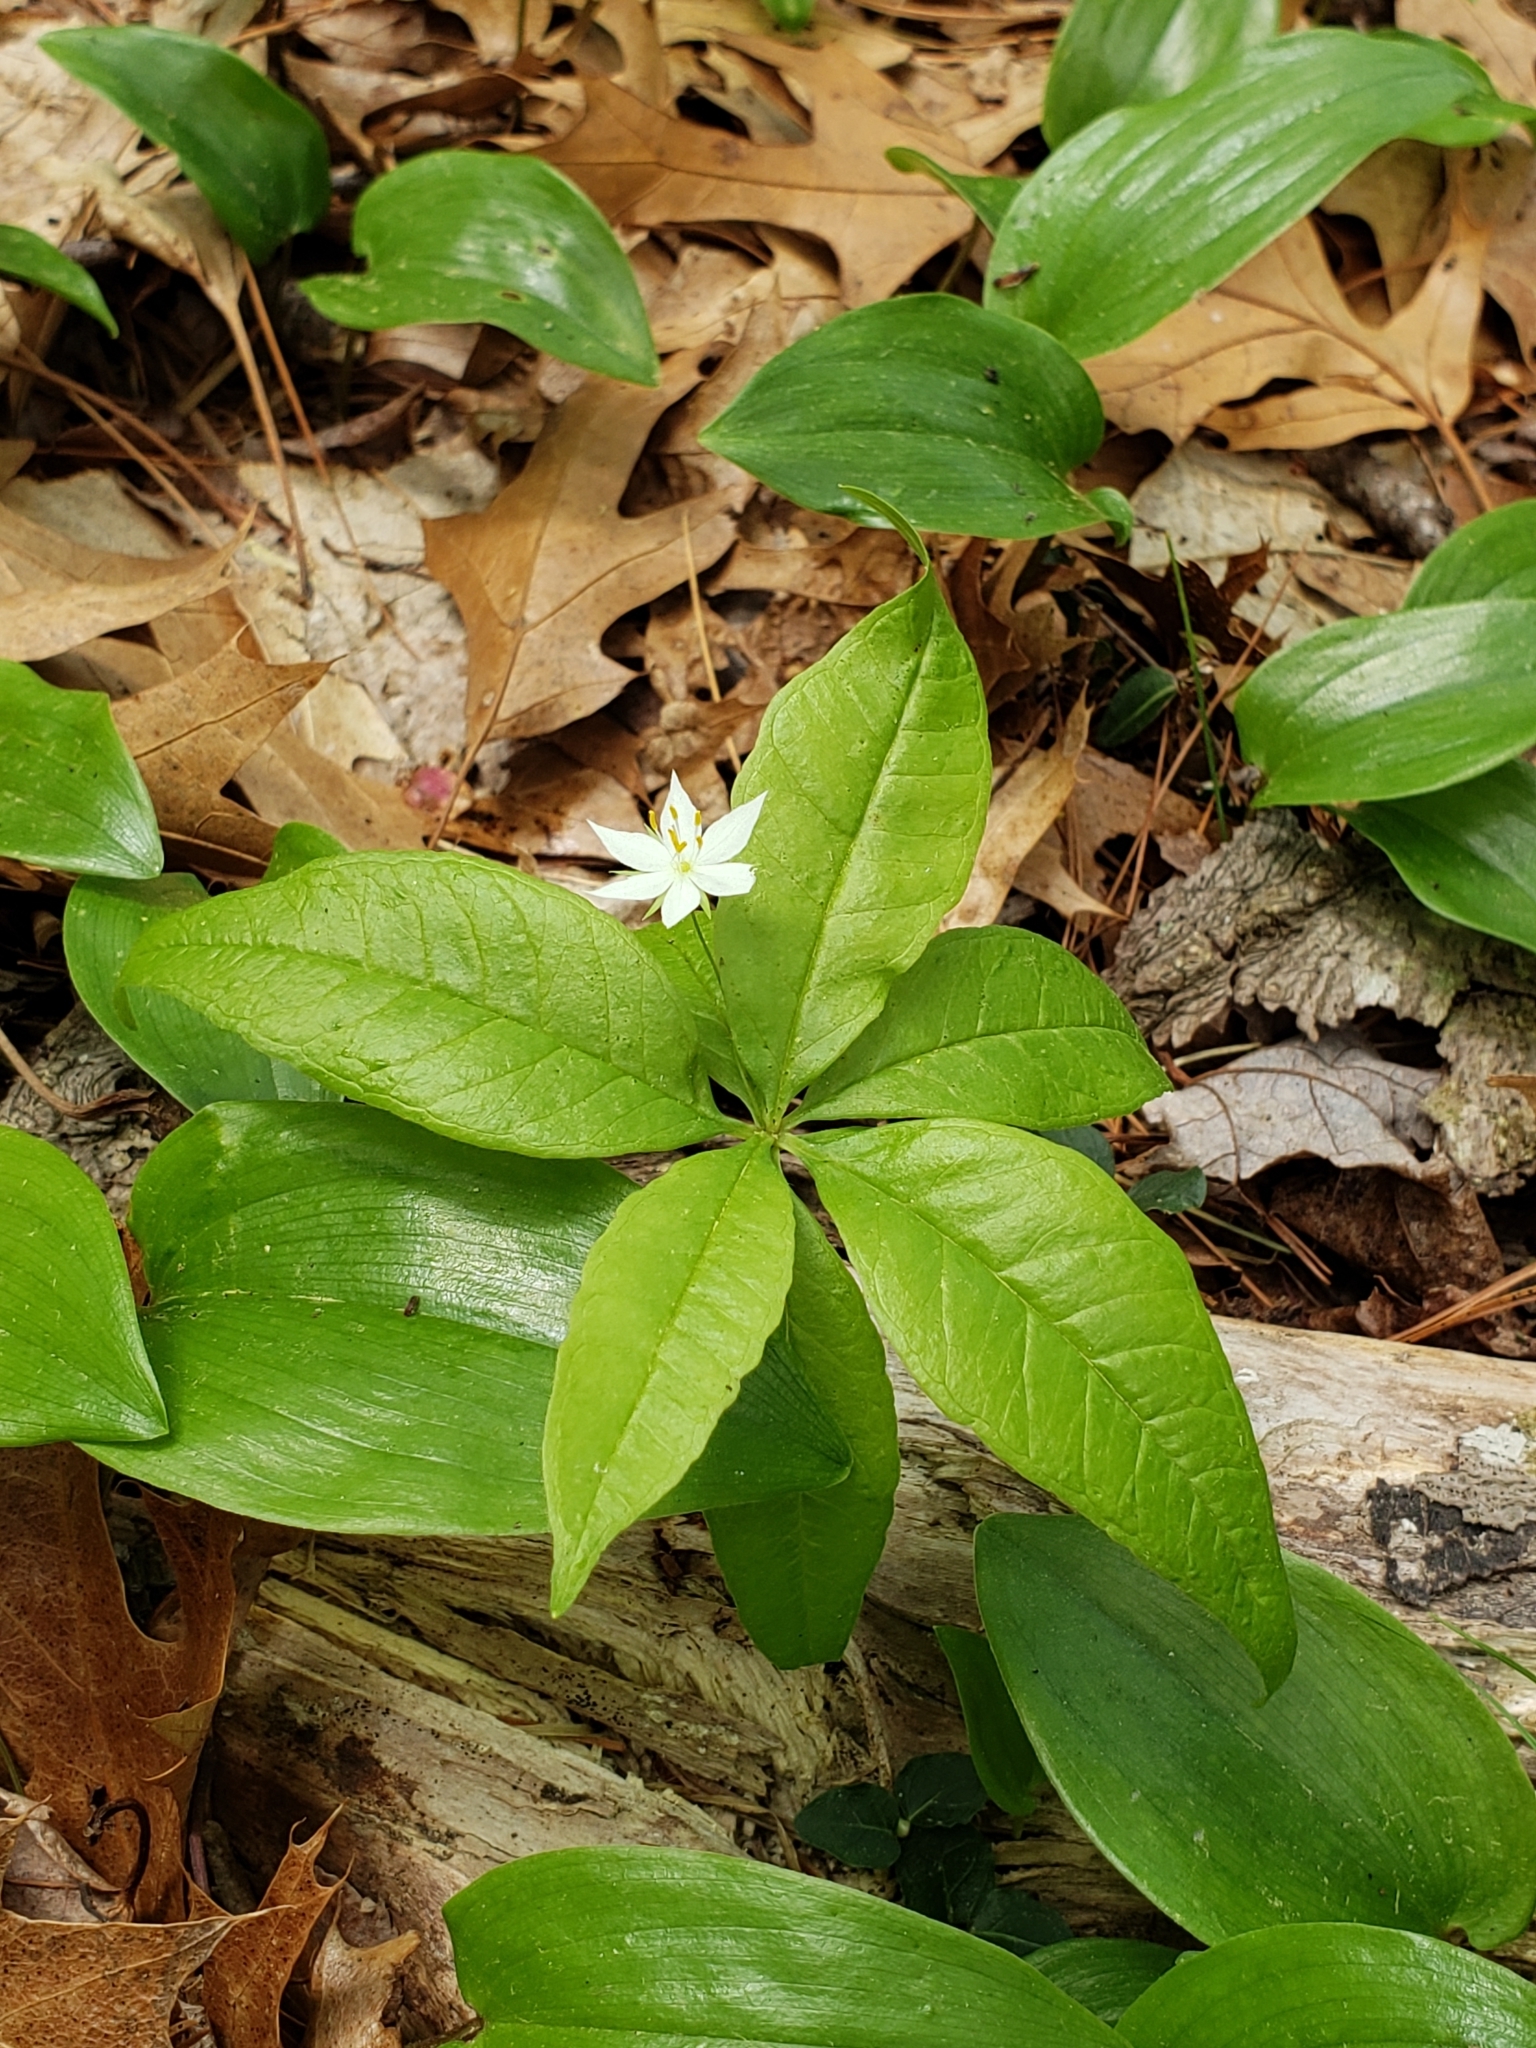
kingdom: Plantae
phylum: Tracheophyta
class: Magnoliopsida
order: Ericales
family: Primulaceae
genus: Lysimachia
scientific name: Lysimachia borealis
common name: American starflower
